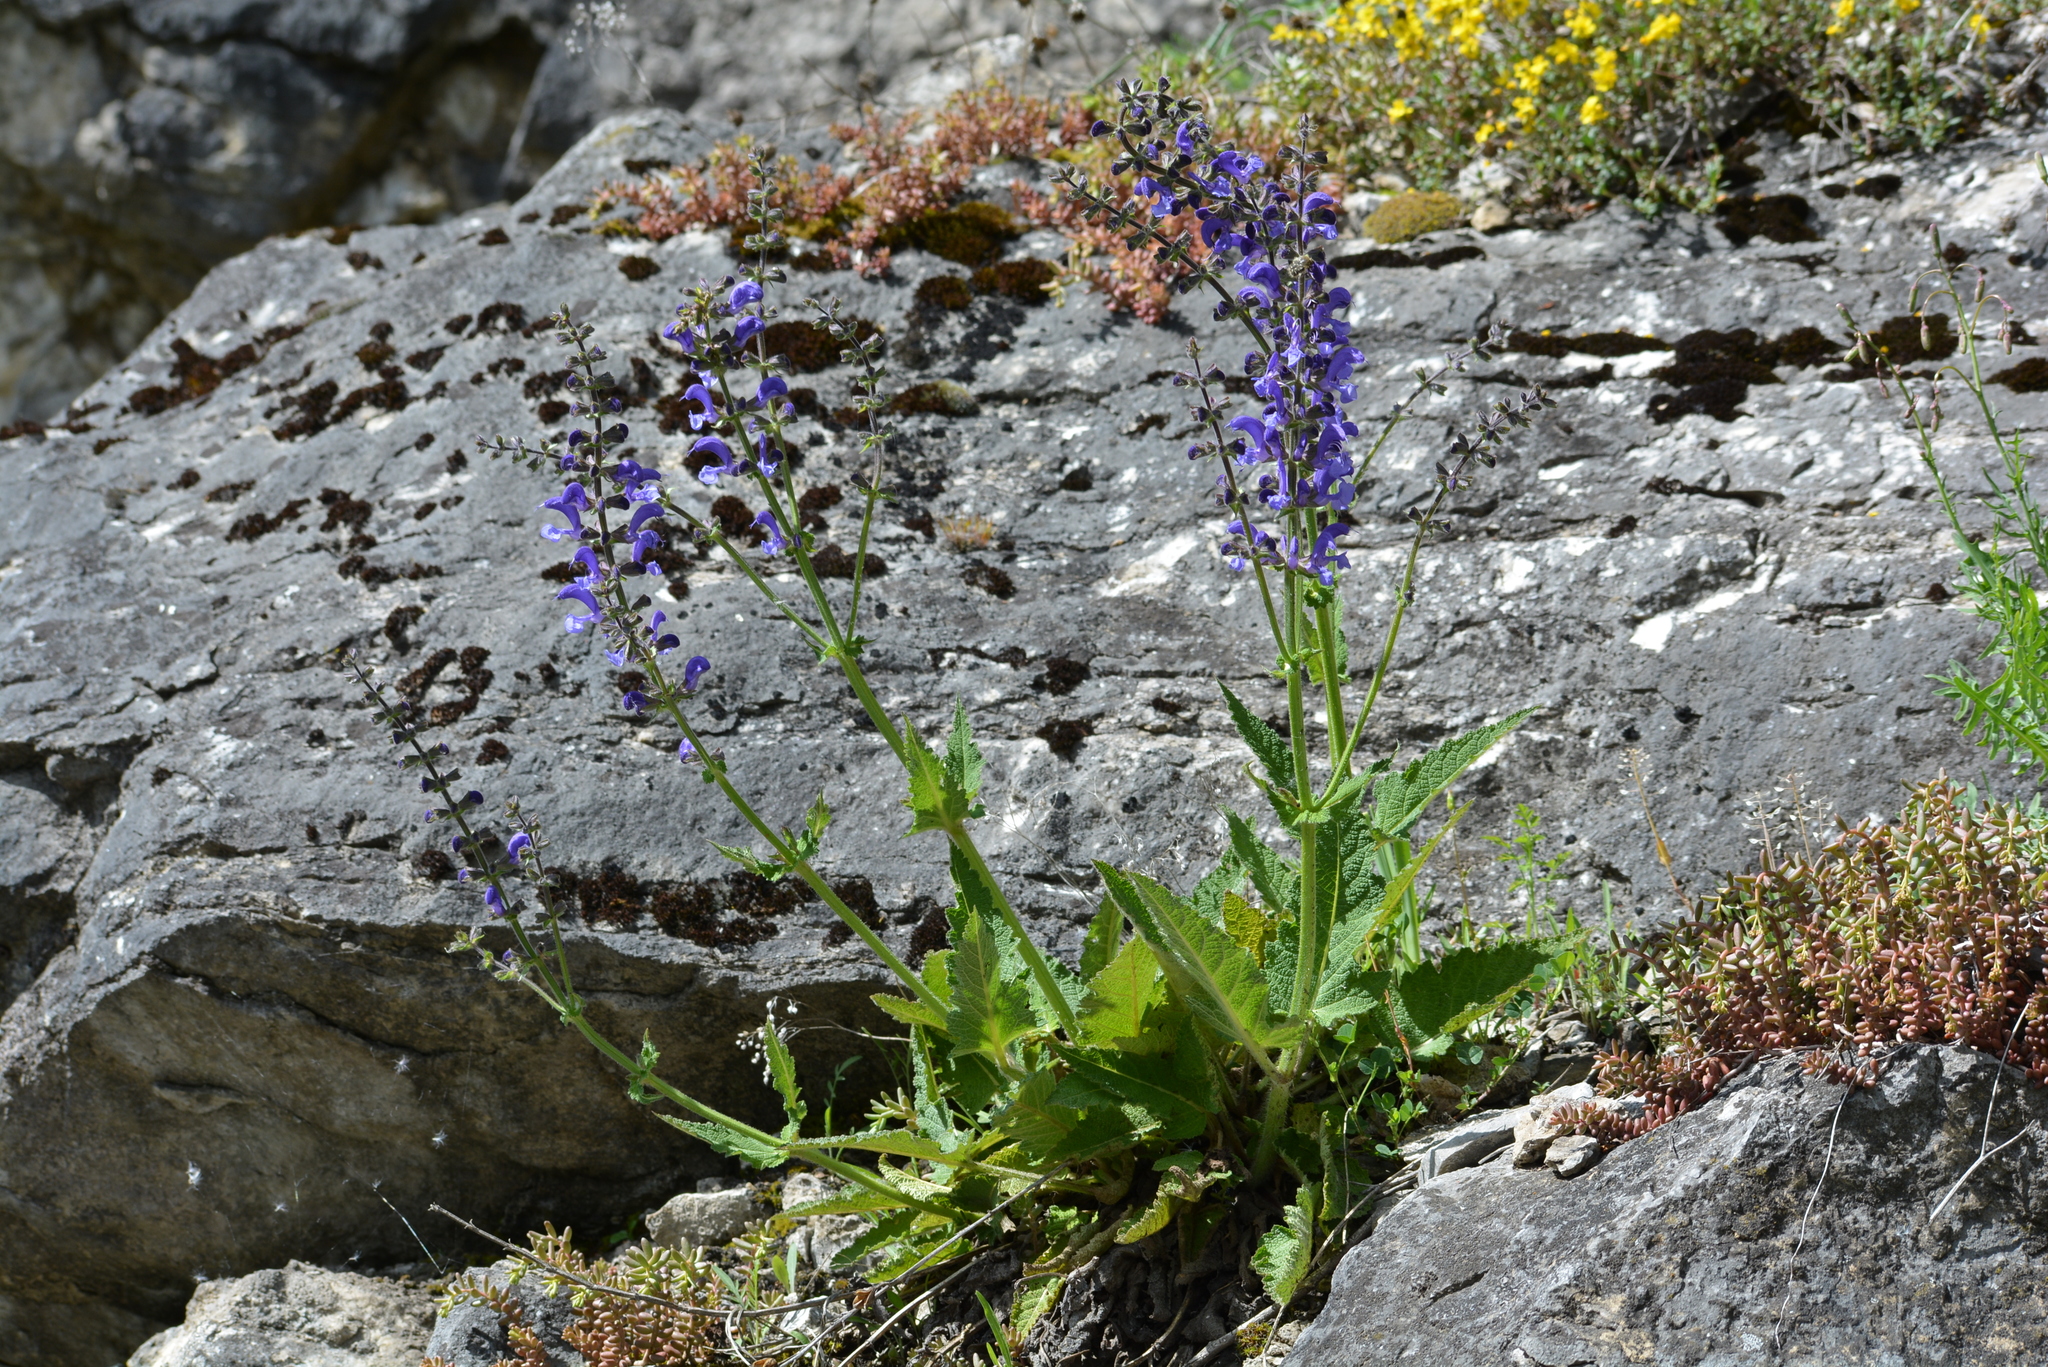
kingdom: Plantae
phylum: Tracheophyta
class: Magnoliopsida
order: Lamiales
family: Lamiaceae
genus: Salvia
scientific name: Salvia pratensis
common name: Meadow sage
